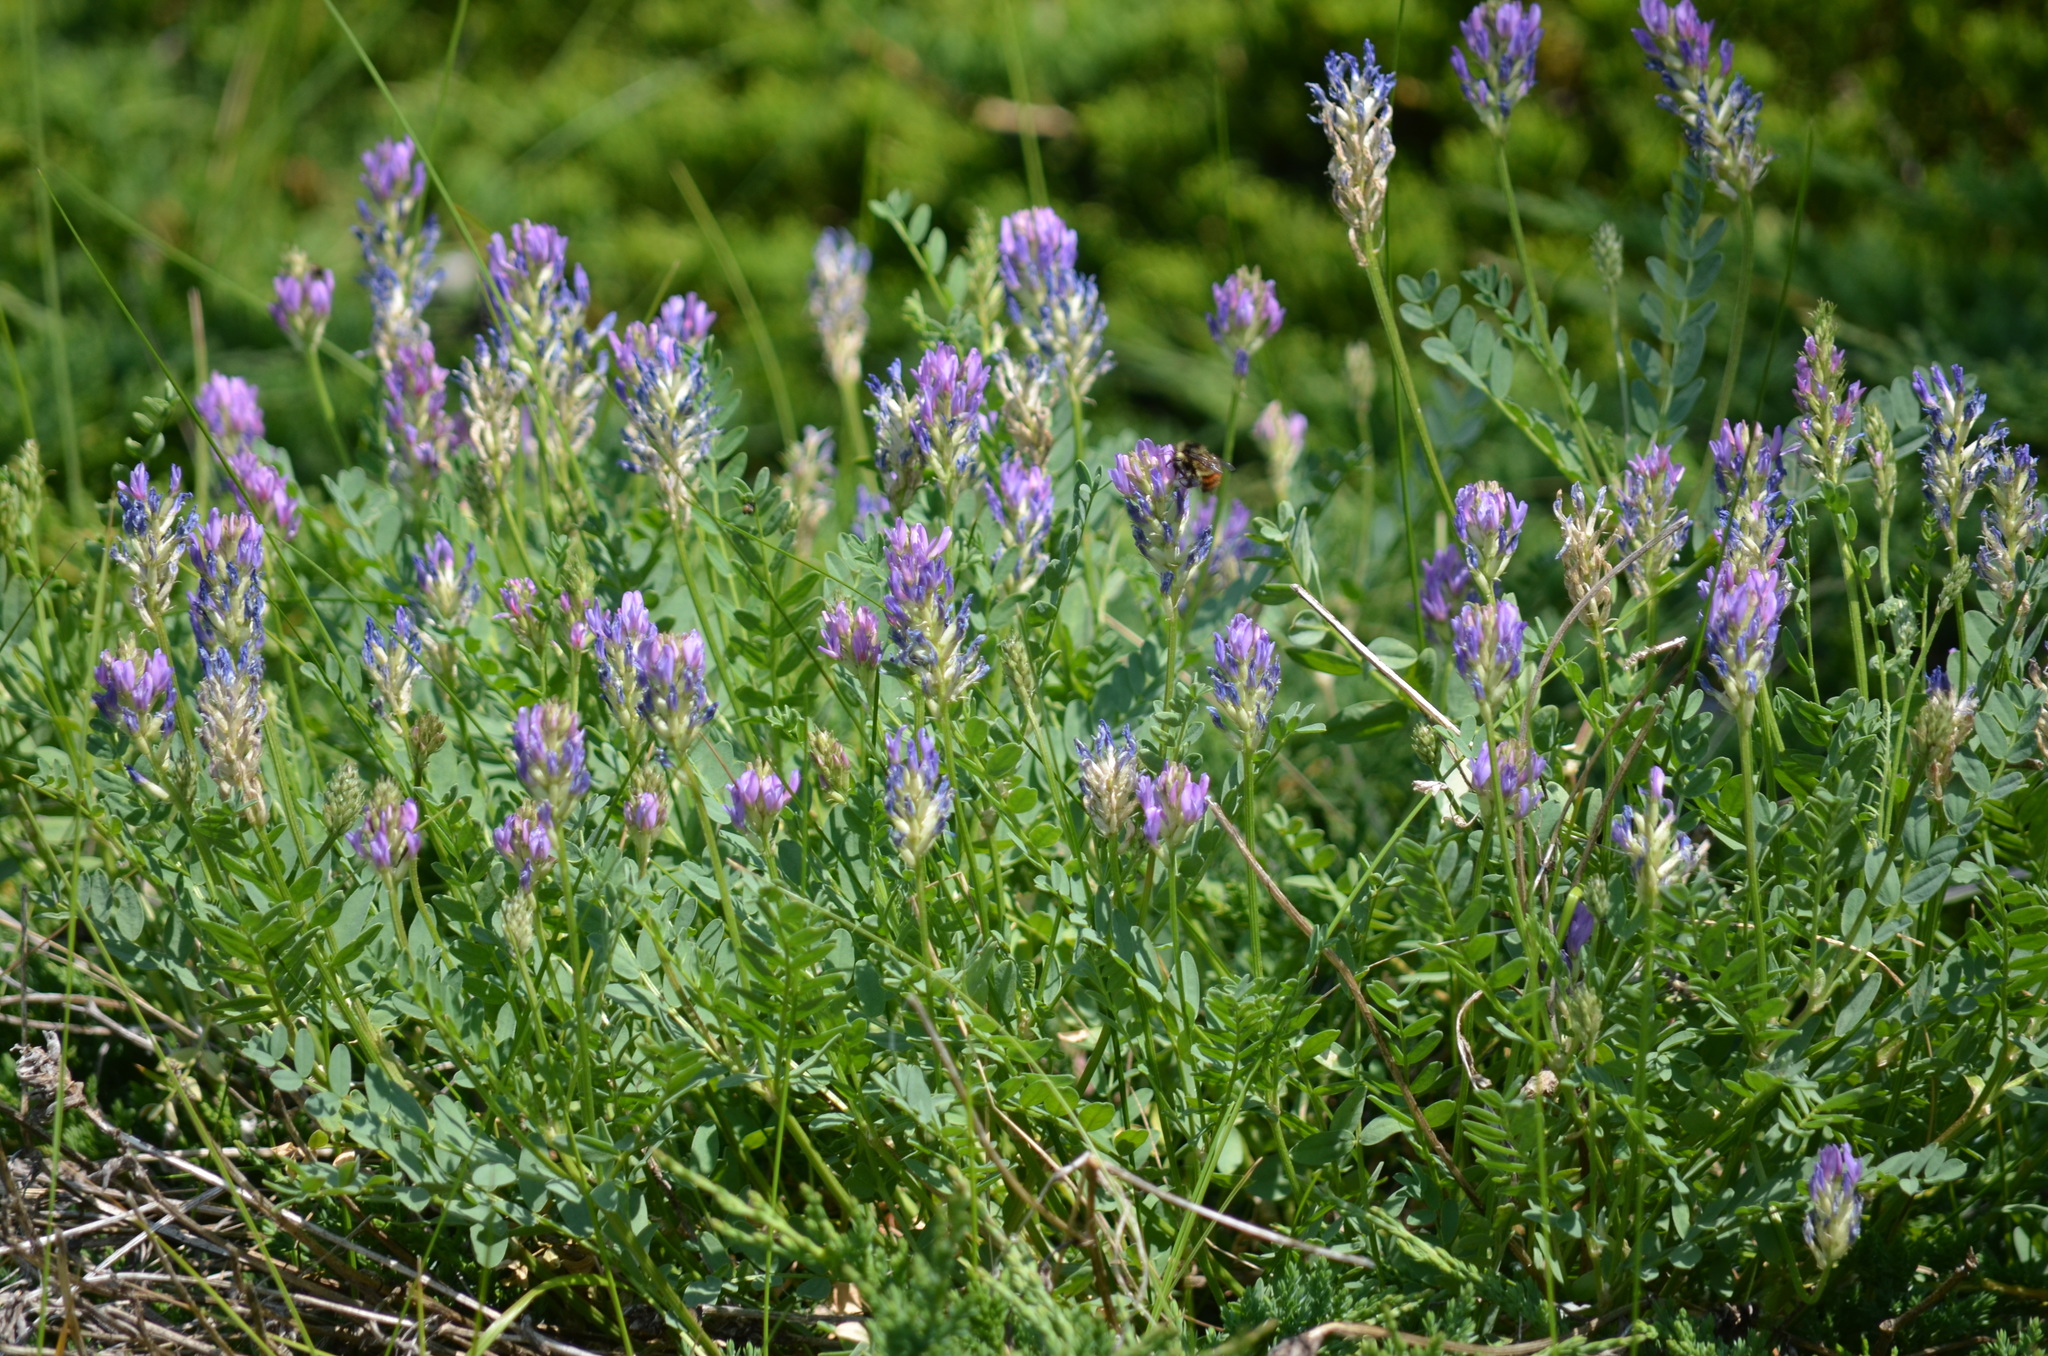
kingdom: Plantae
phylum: Tracheophyta
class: Magnoliopsida
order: Fabales
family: Fabaceae
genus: Astragalus
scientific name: Astragalus laxmannii
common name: Laxmann's milk-vetch
